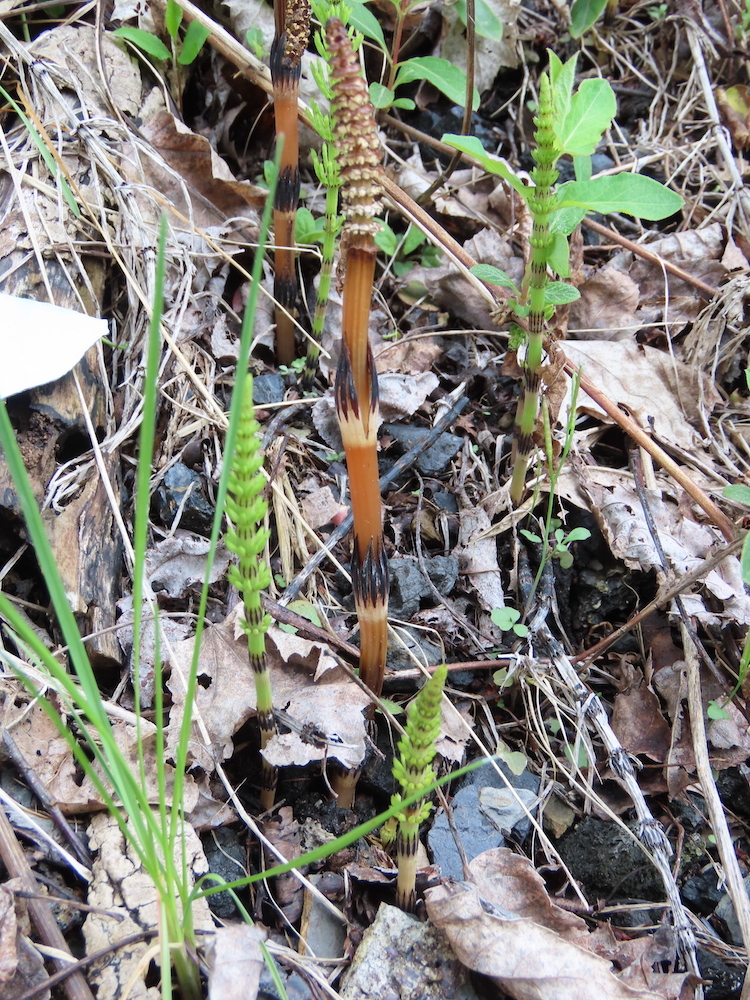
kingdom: Plantae
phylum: Tracheophyta
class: Polypodiopsida
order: Equisetales
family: Equisetaceae
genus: Equisetum
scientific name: Equisetum arvense
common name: Field horsetail
